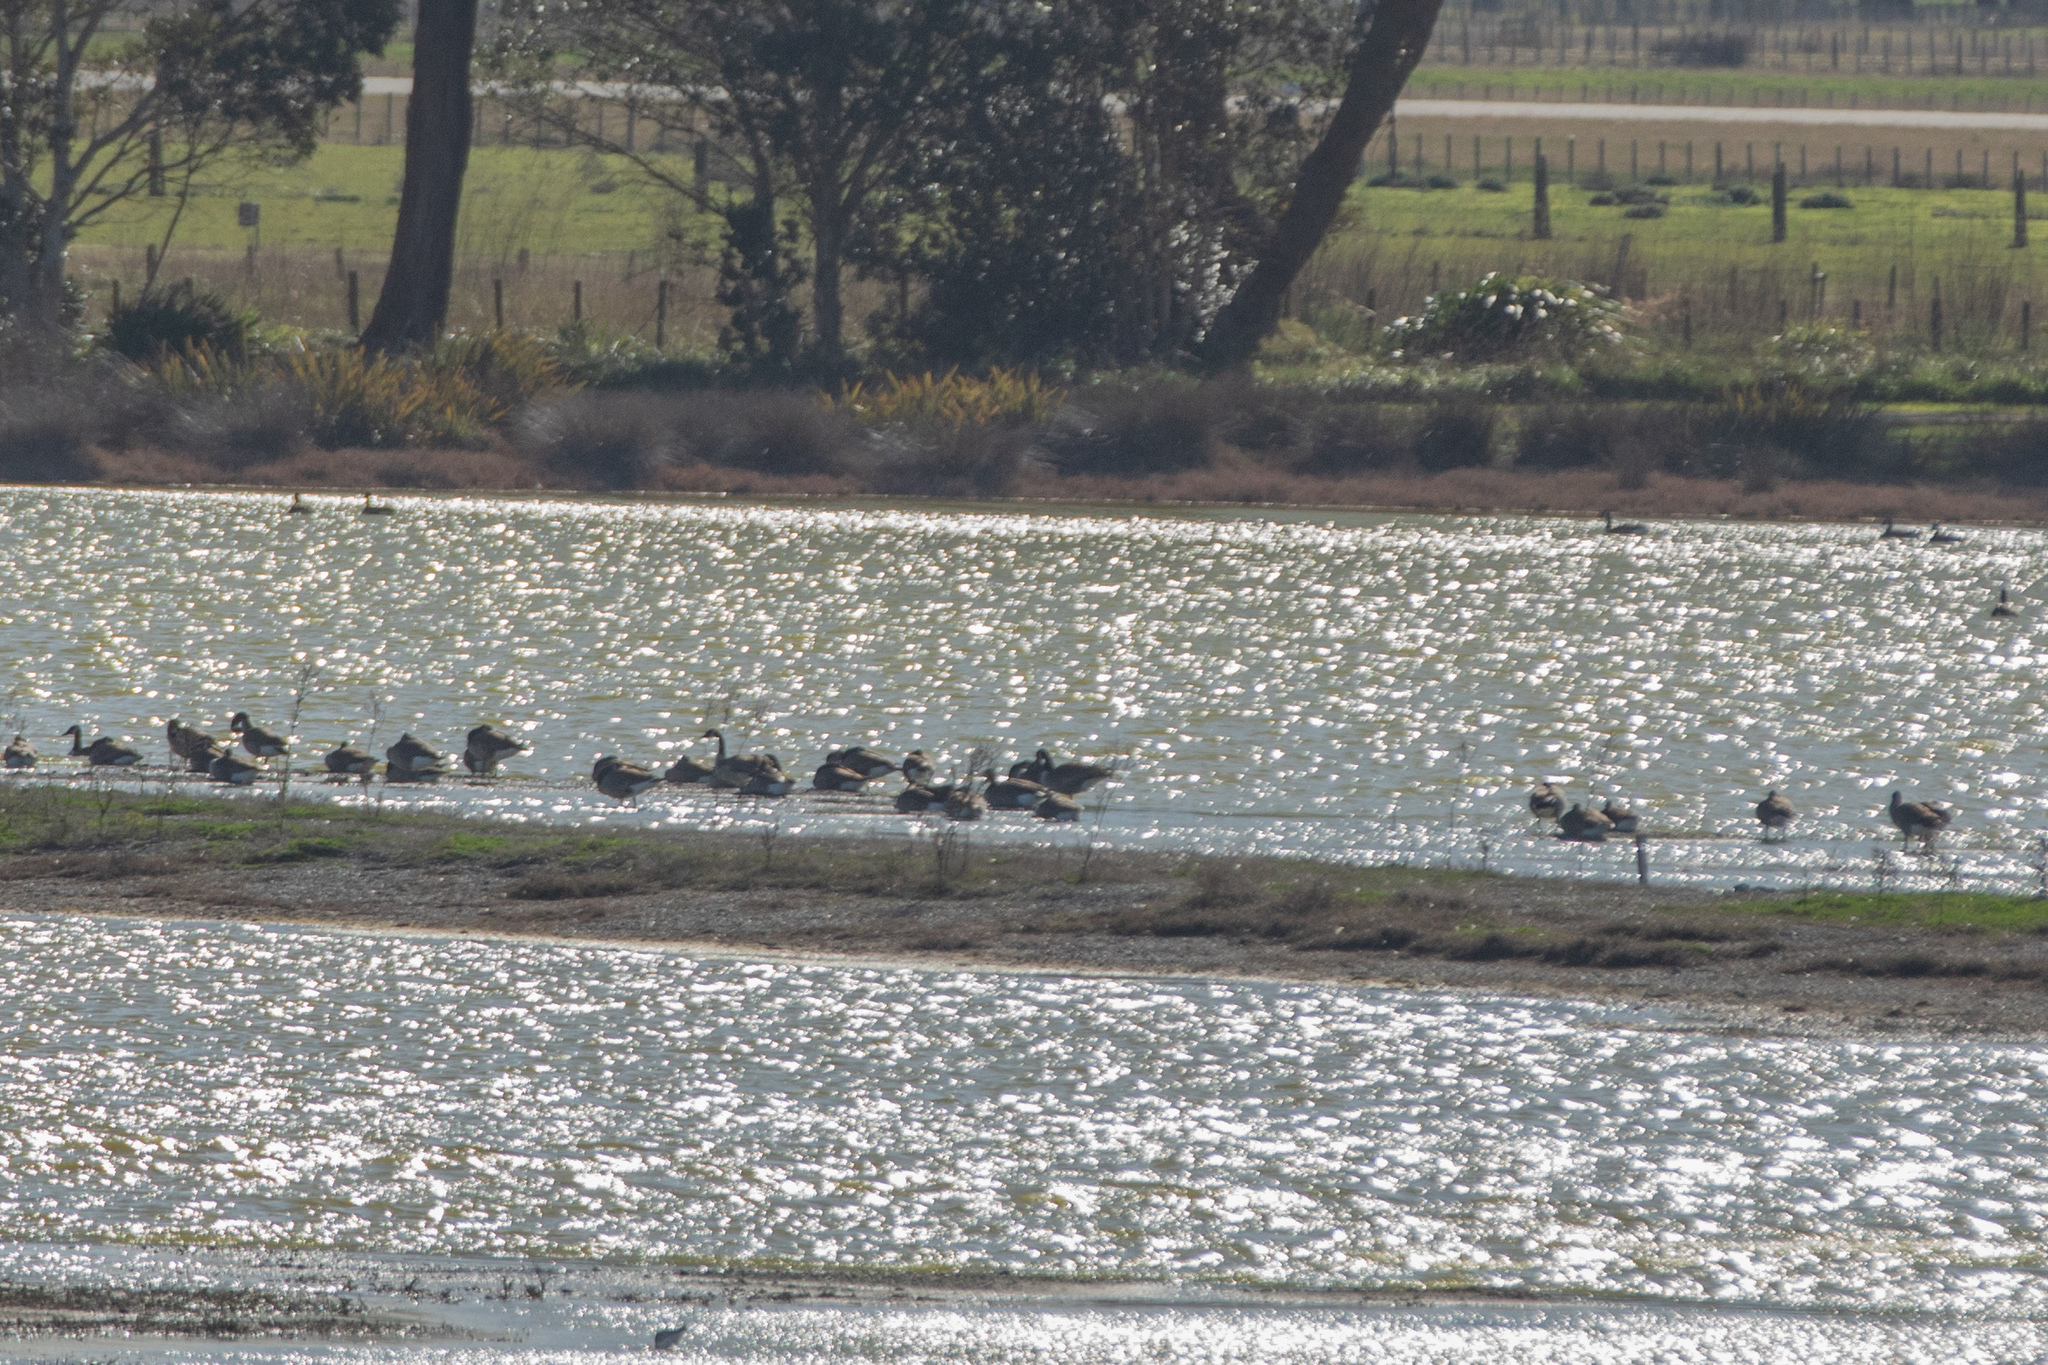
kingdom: Animalia
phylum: Chordata
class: Aves
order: Anseriformes
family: Anatidae
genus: Branta
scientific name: Branta canadensis
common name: Canada goose
